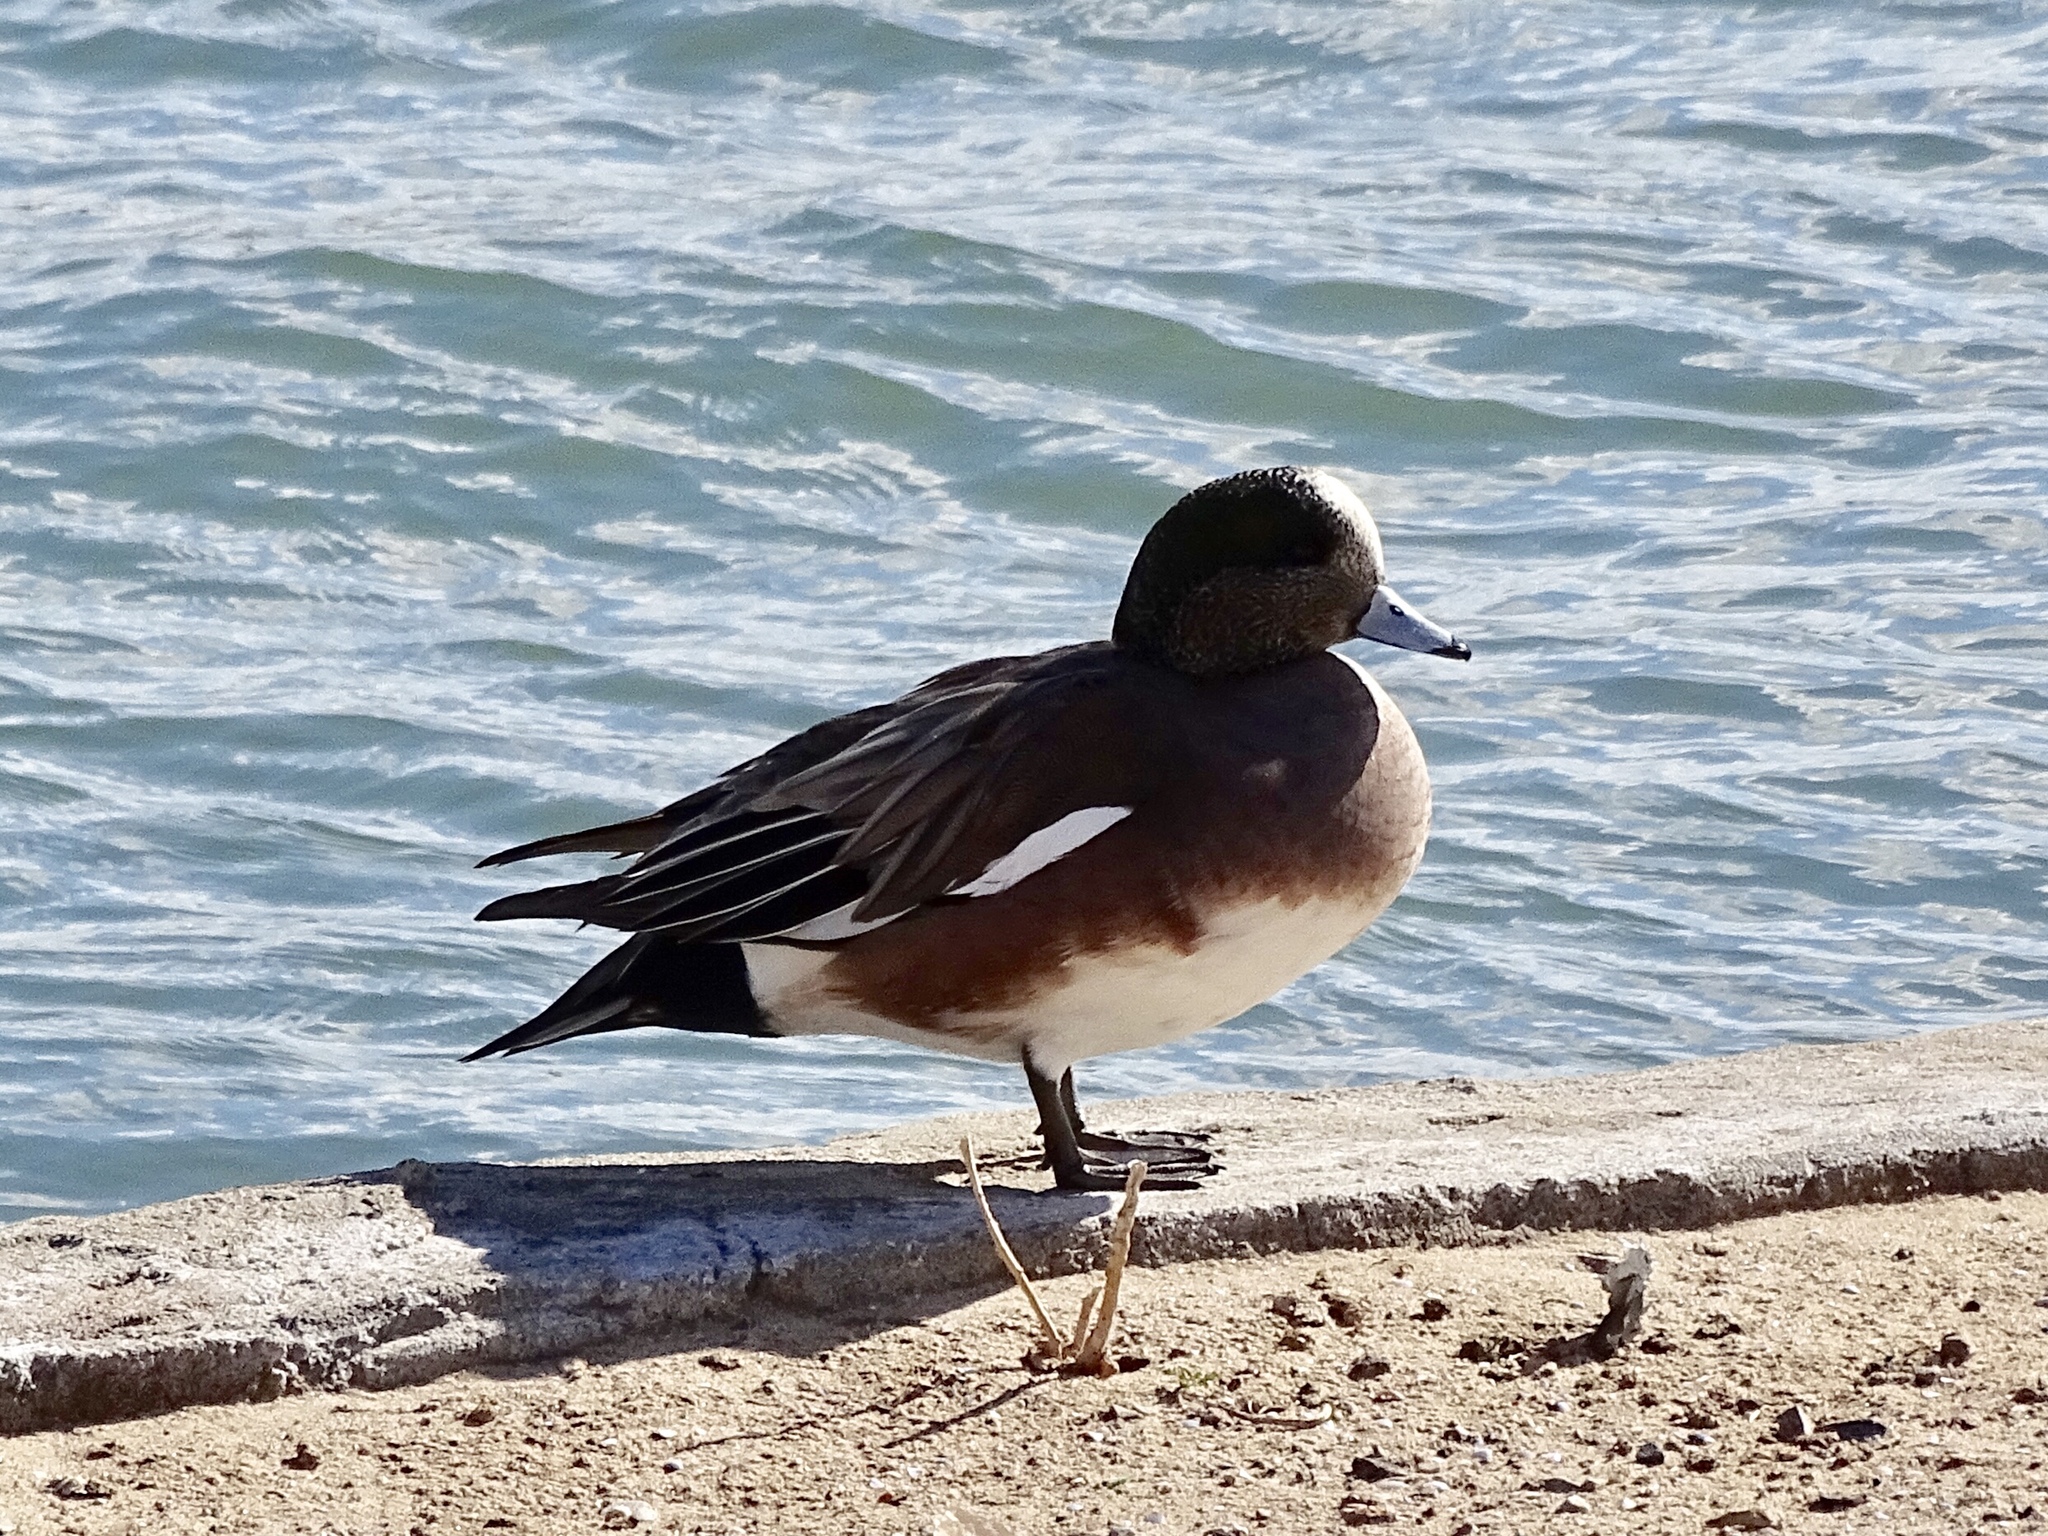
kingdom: Animalia
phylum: Chordata
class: Aves
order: Anseriformes
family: Anatidae
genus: Mareca
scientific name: Mareca americana
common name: American wigeon
